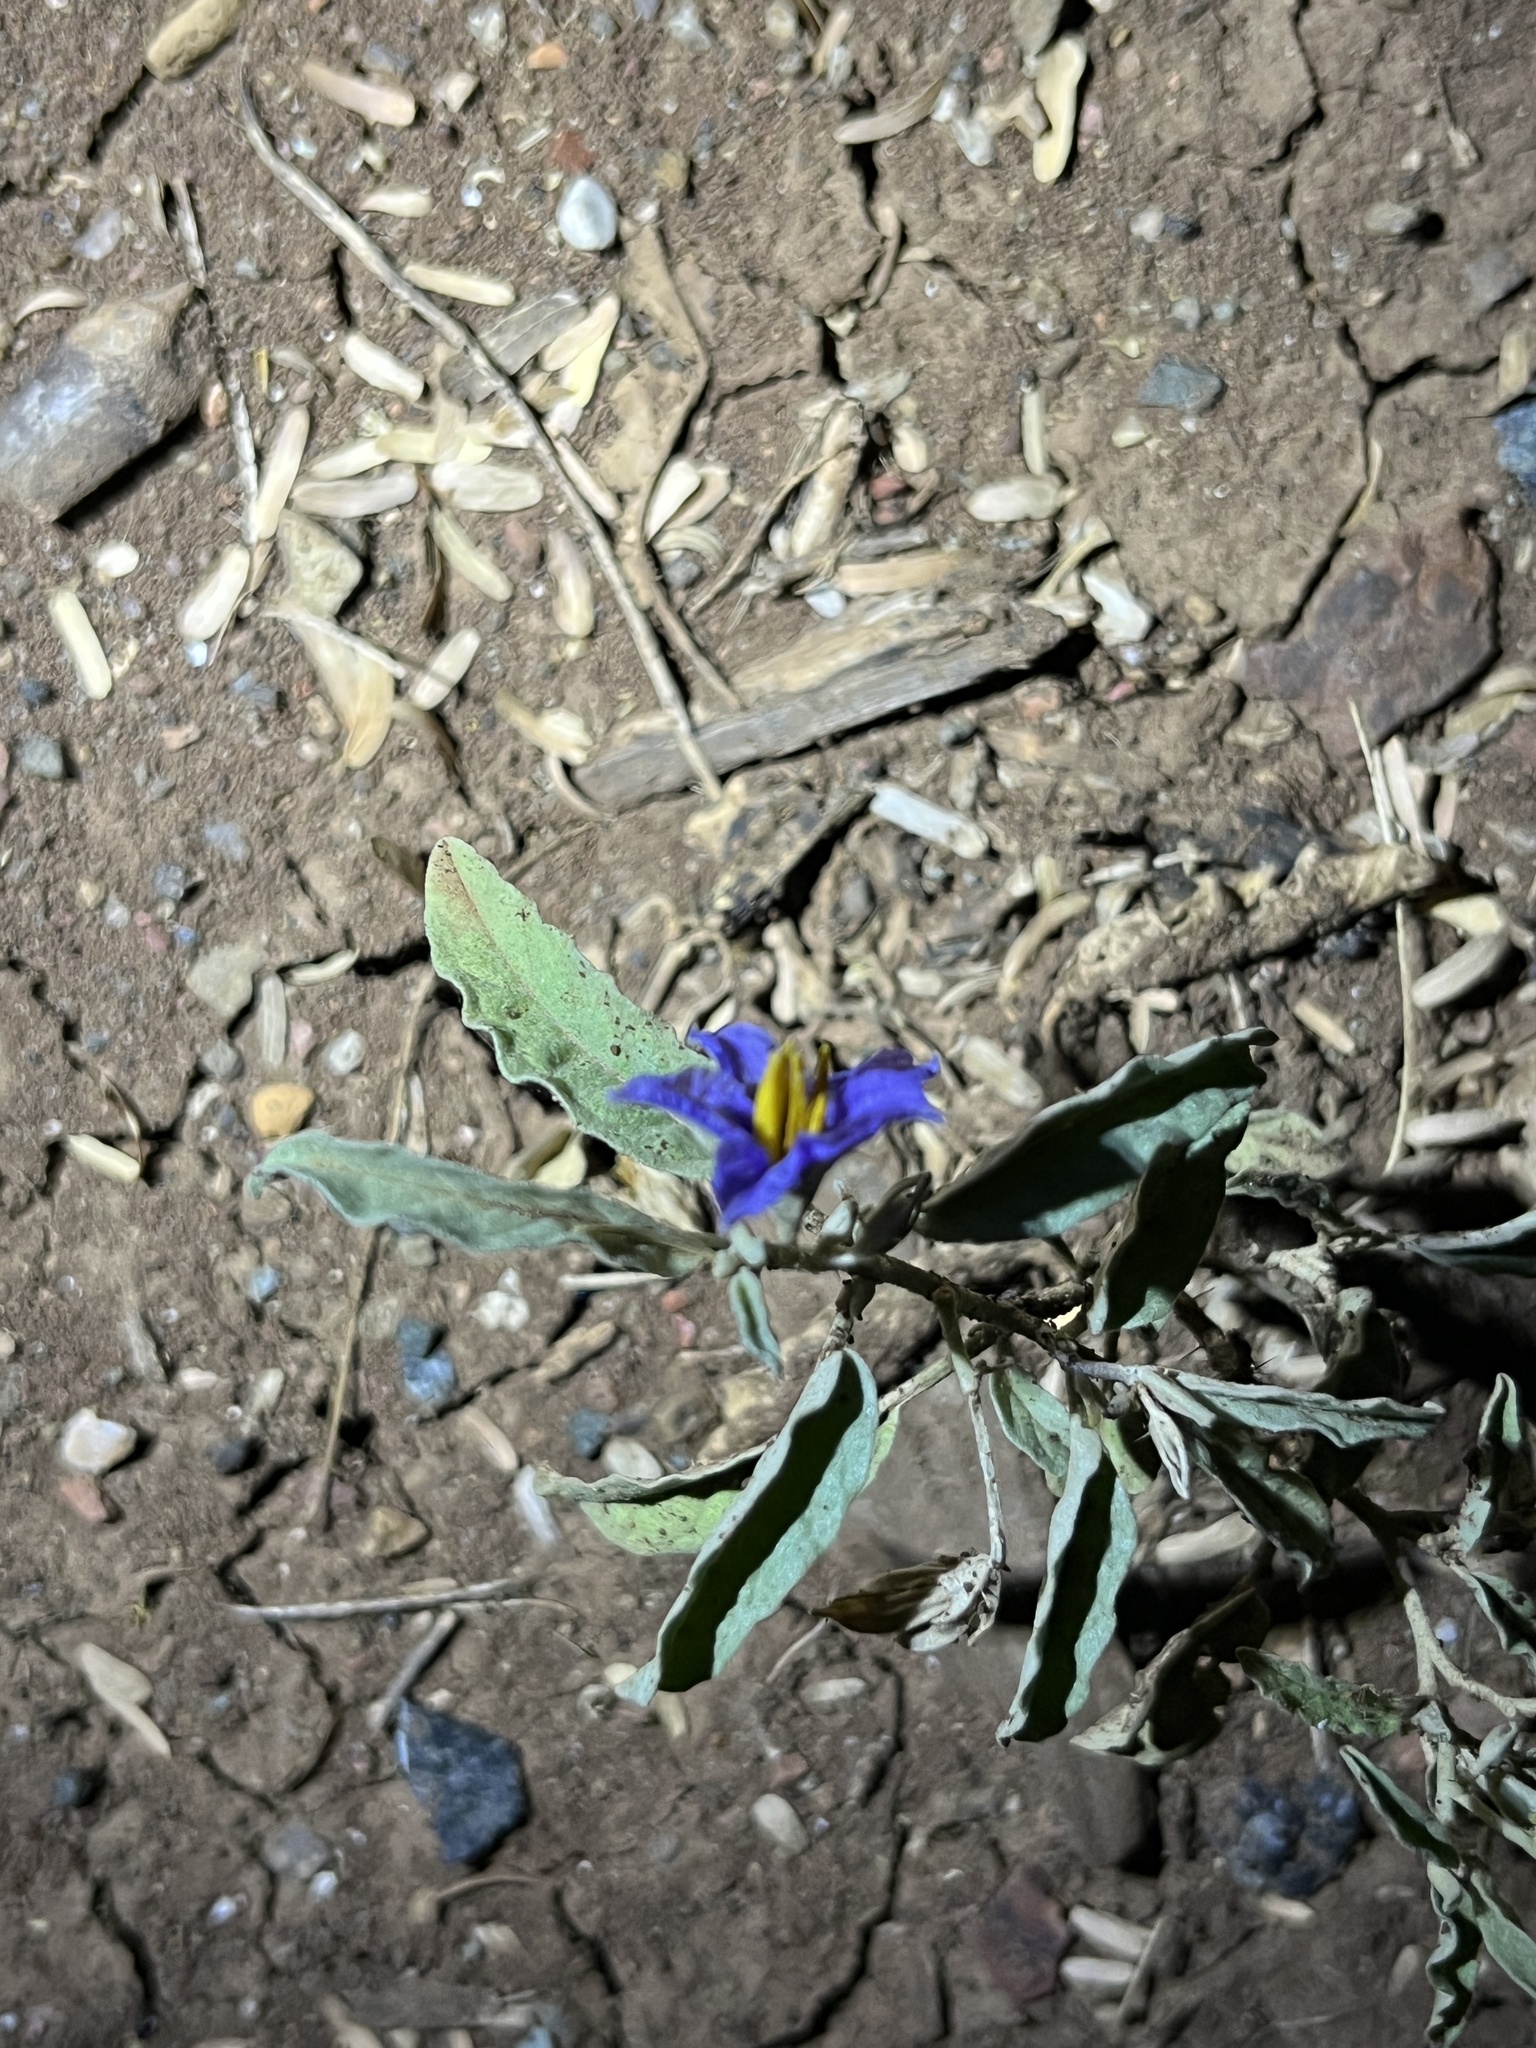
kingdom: Plantae
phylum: Tracheophyta
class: Magnoliopsida
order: Solanales
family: Solanaceae
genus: Solanum
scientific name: Solanum elaeagnifolium
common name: Silverleaf nightshade
